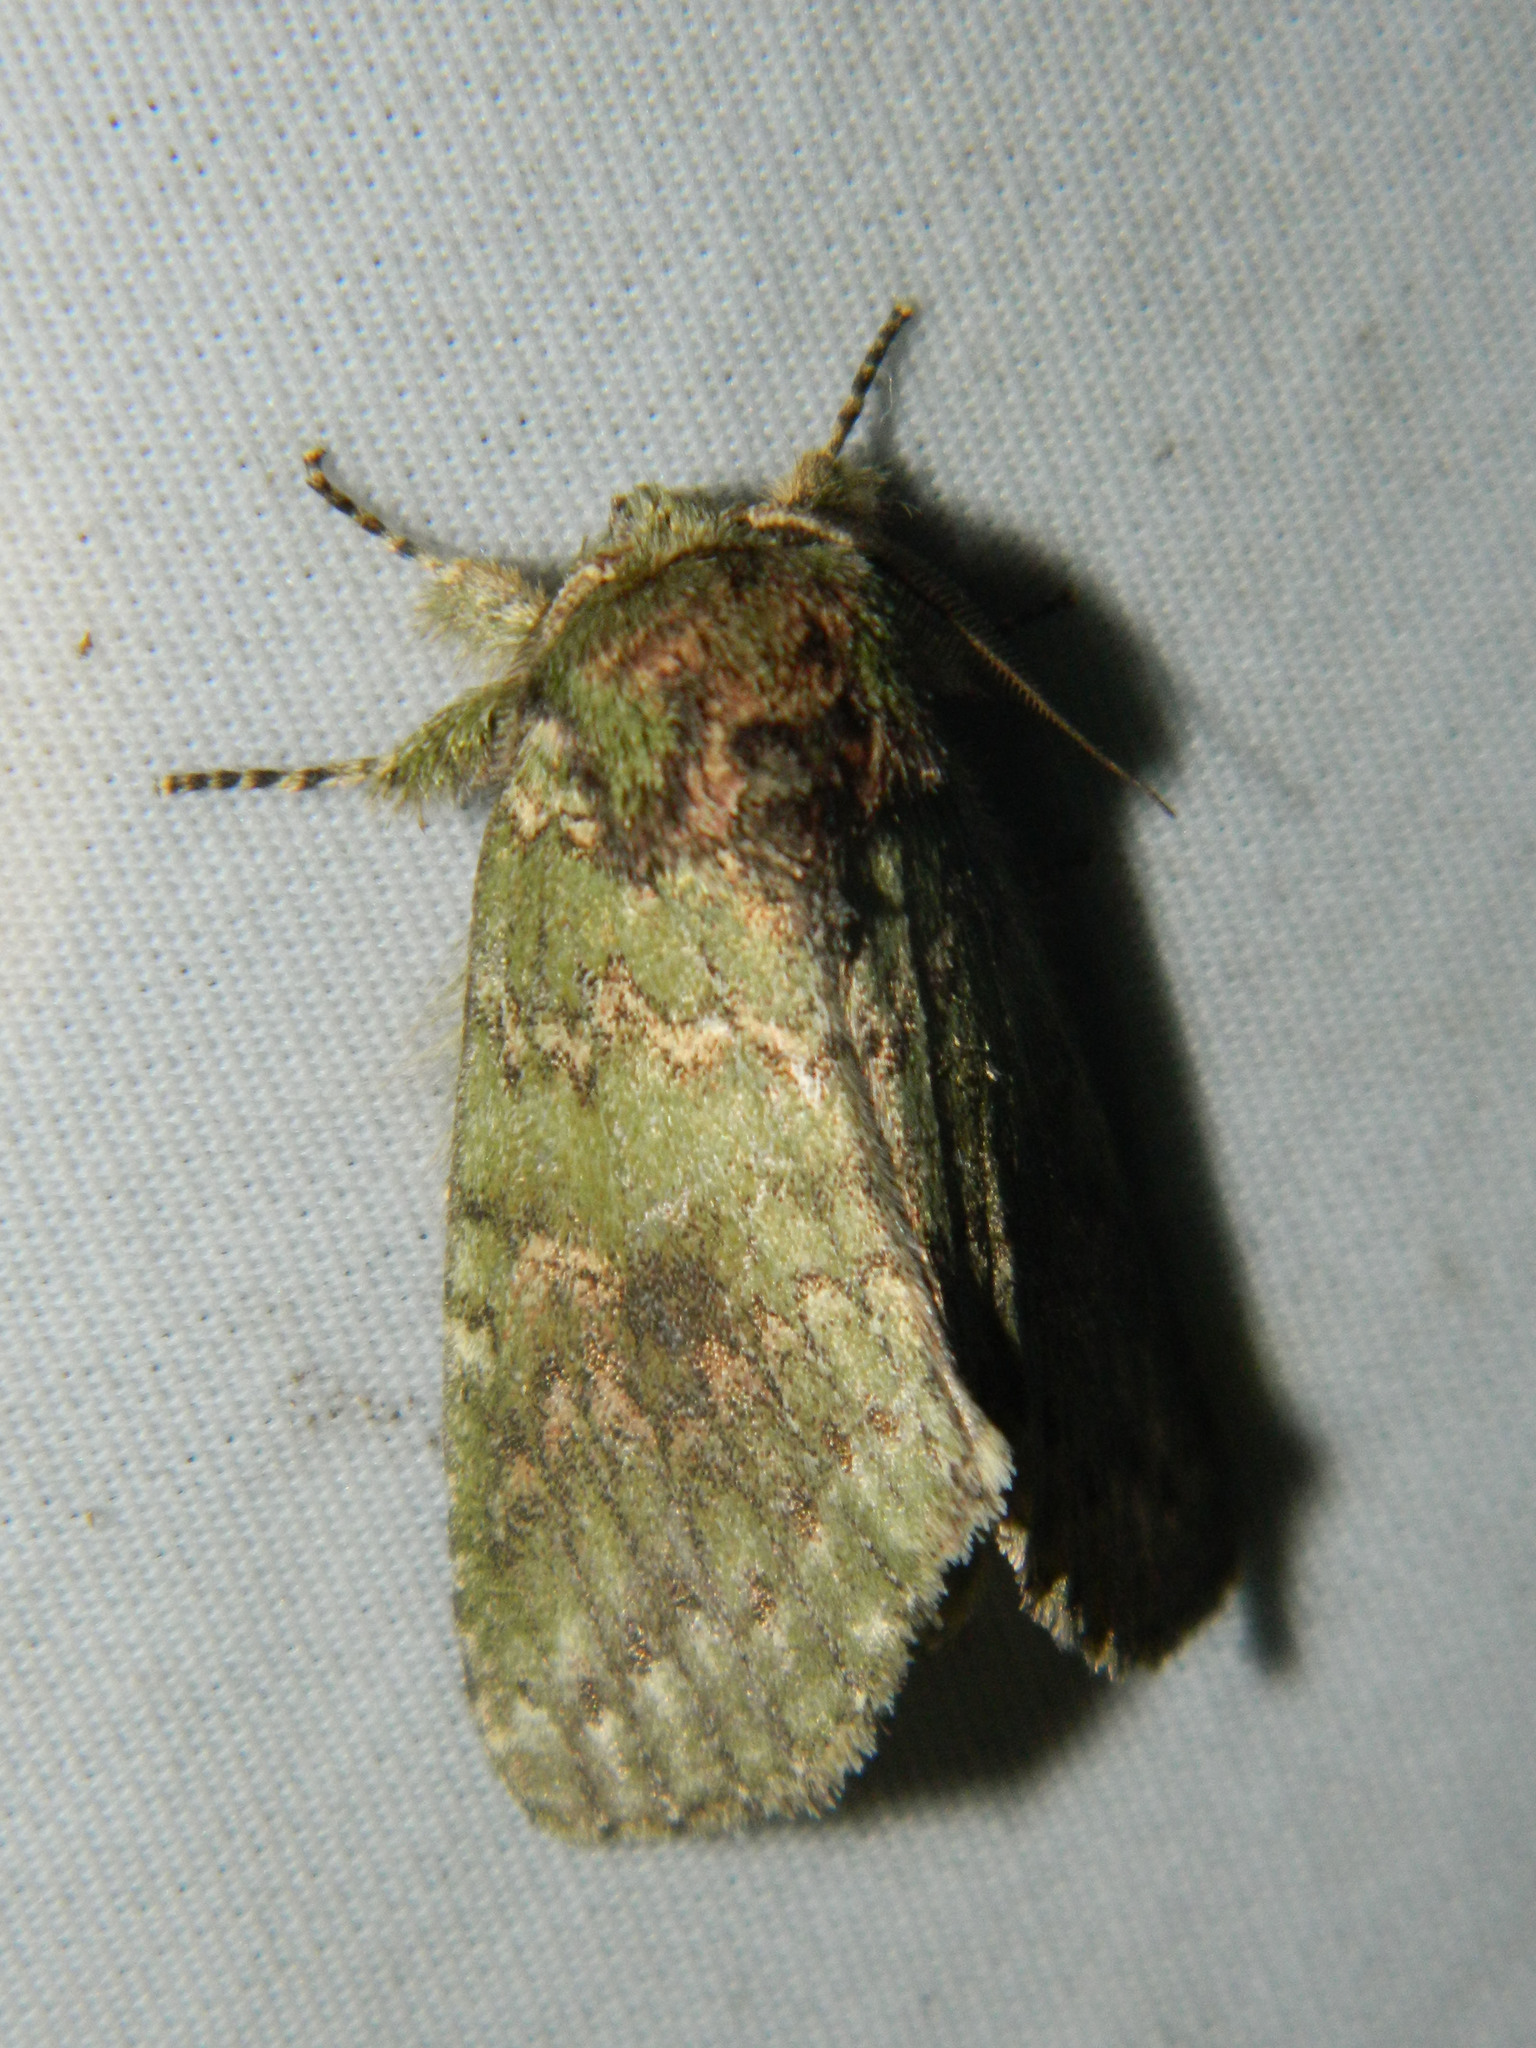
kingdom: Animalia
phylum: Arthropoda
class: Insecta
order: Lepidoptera
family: Notodontidae
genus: Disphragis
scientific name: Disphragis Cecrita biundata
